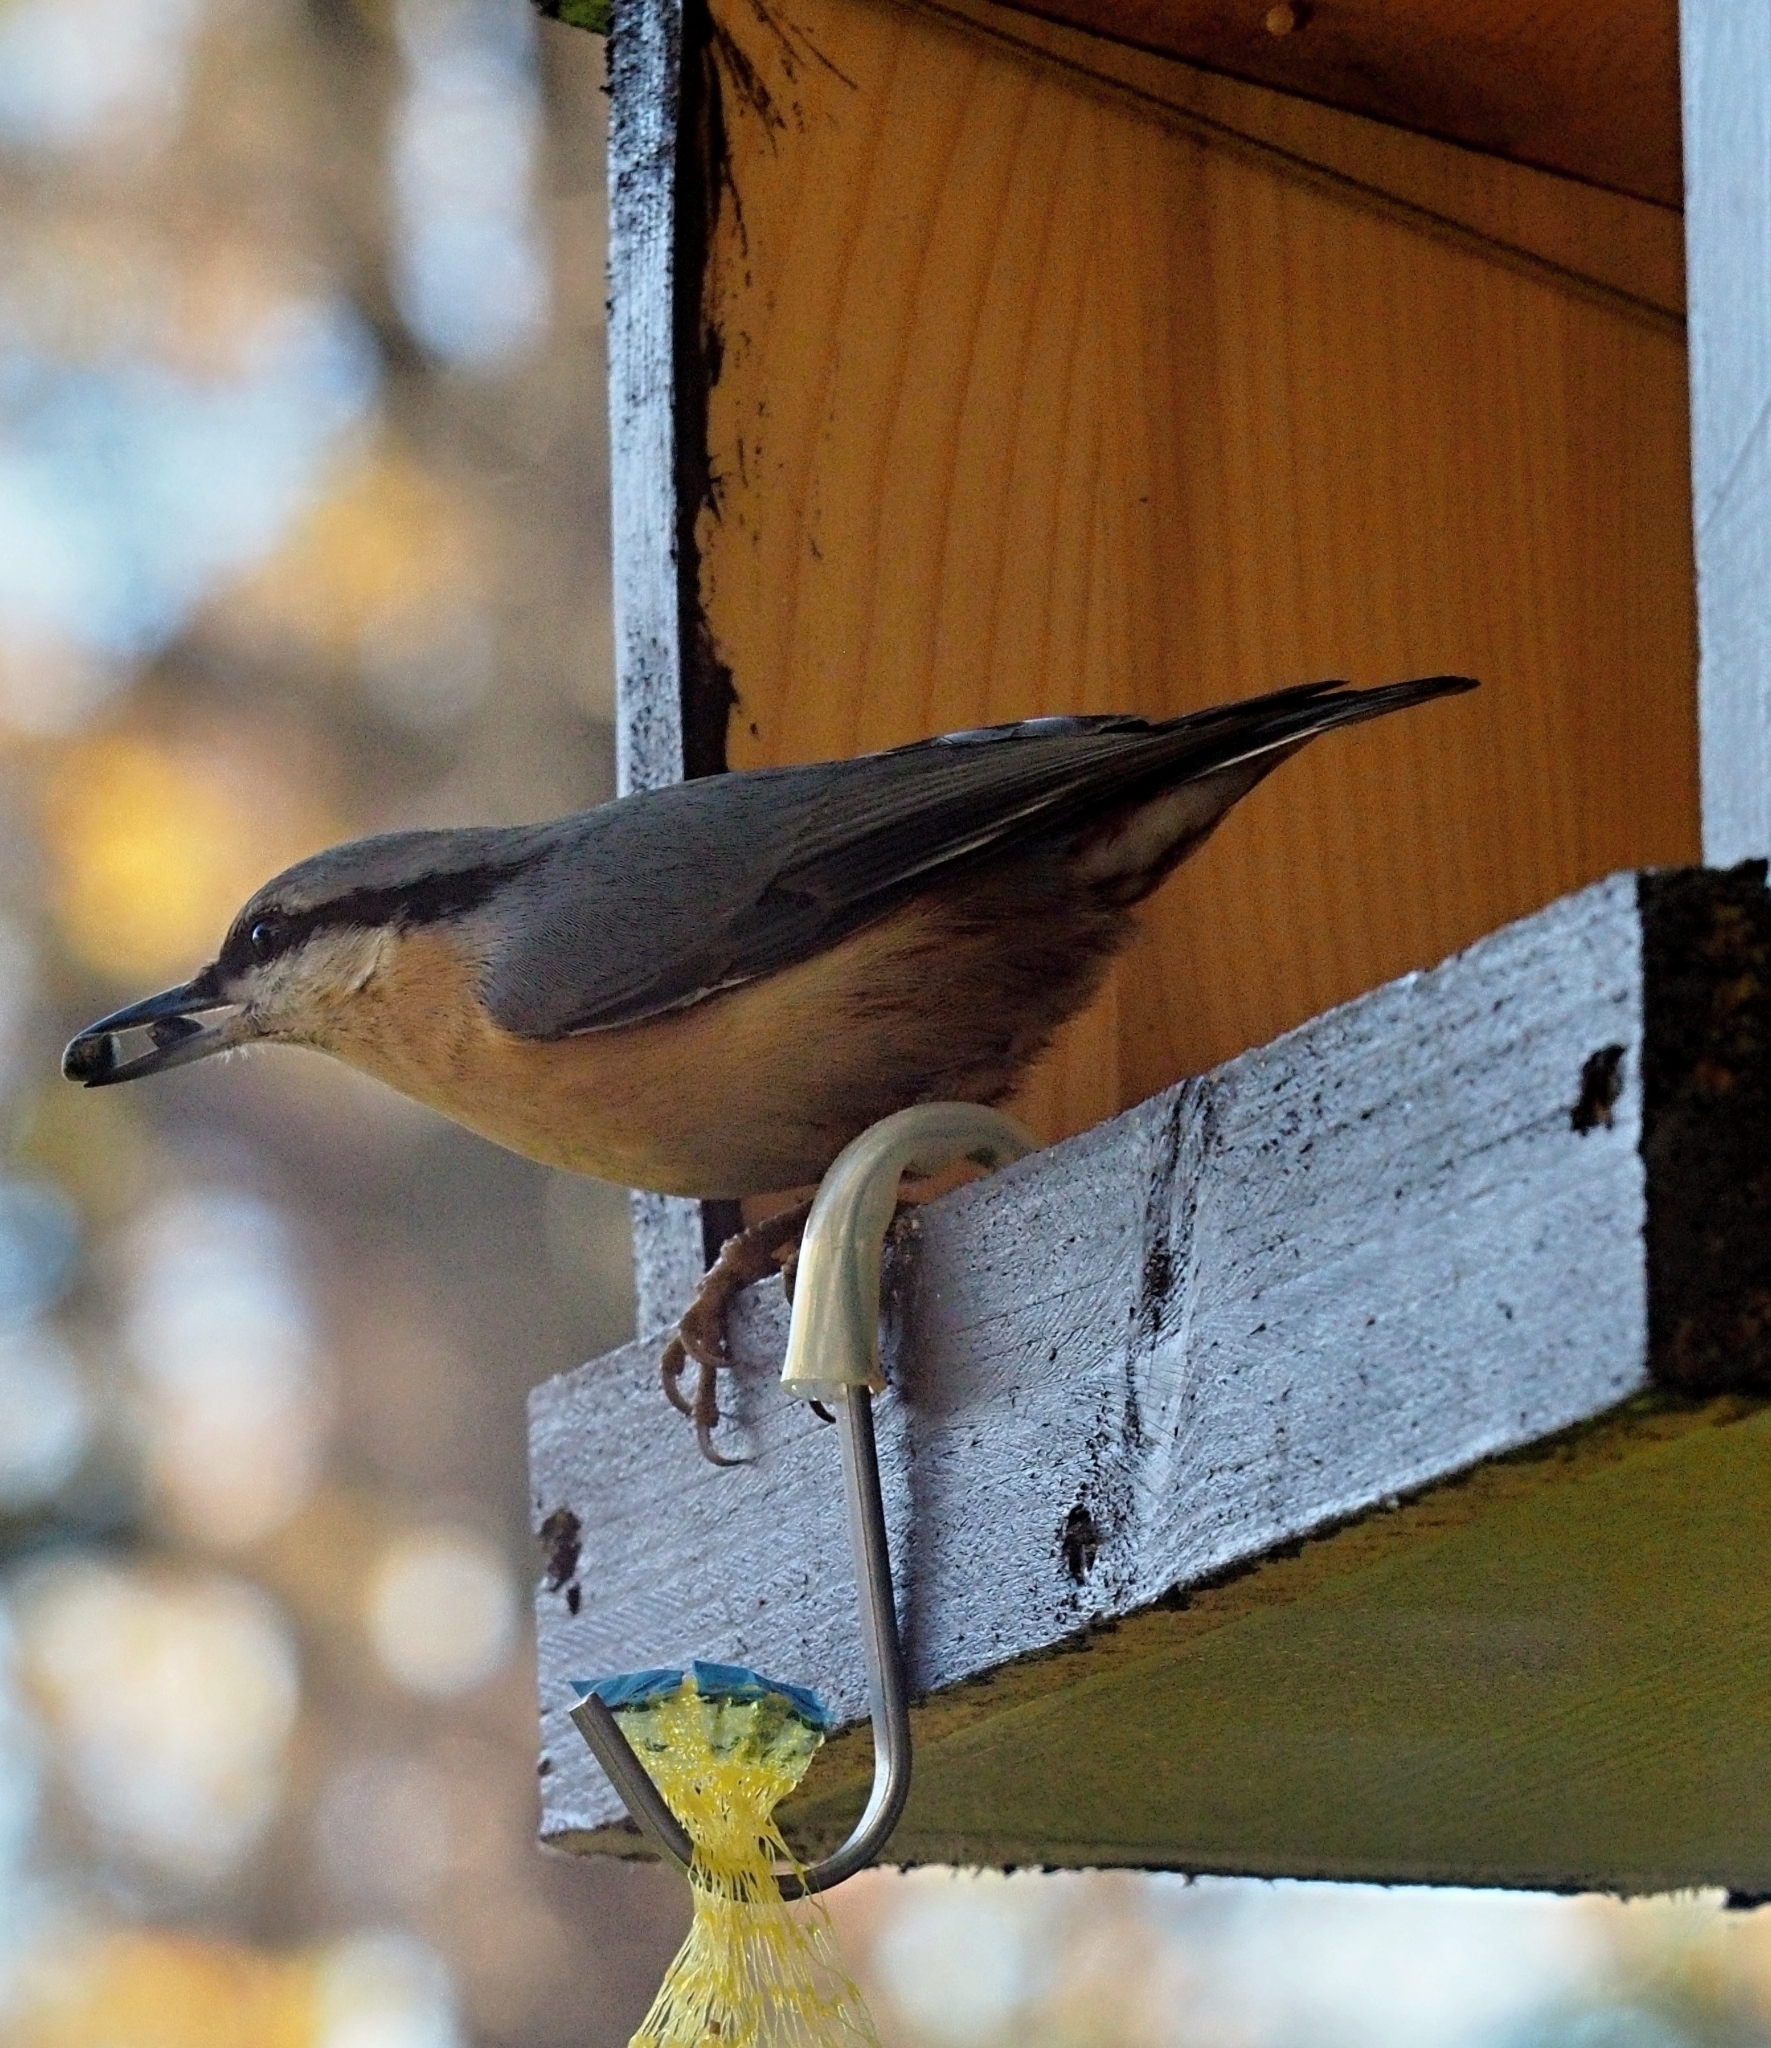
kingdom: Animalia
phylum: Chordata
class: Aves
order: Passeriformes
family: Sittidae
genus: Sitta
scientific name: Sitta europaea
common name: Eurasian nuthatch
